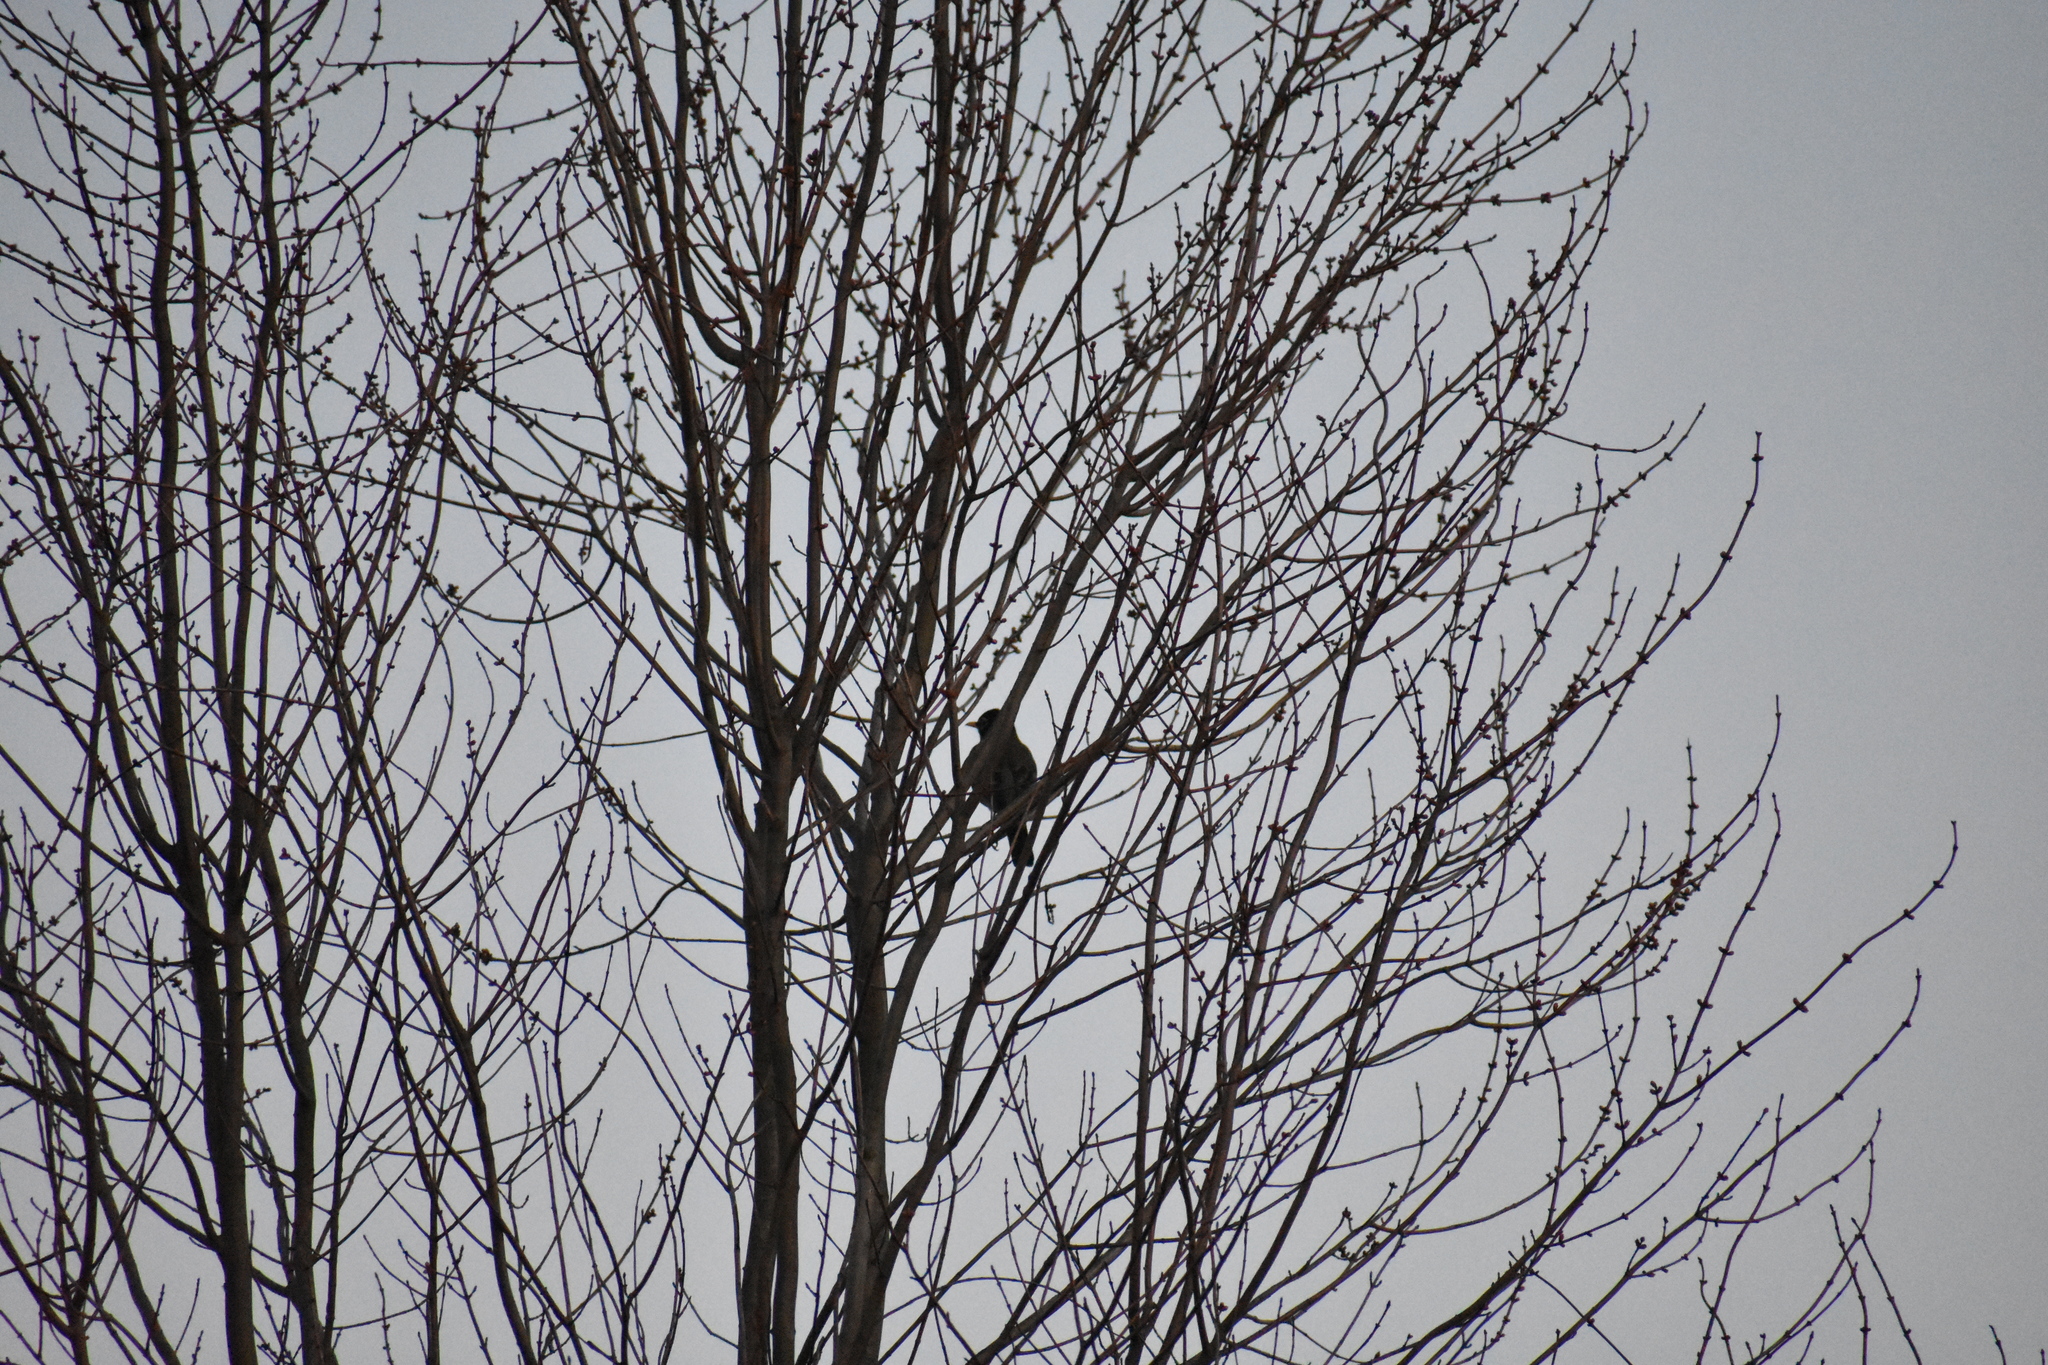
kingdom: Animalia
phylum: Chordata
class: Aves
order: Passeriformes
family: Turdidae
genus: Turdus
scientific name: Turdus migratorius
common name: American robin
